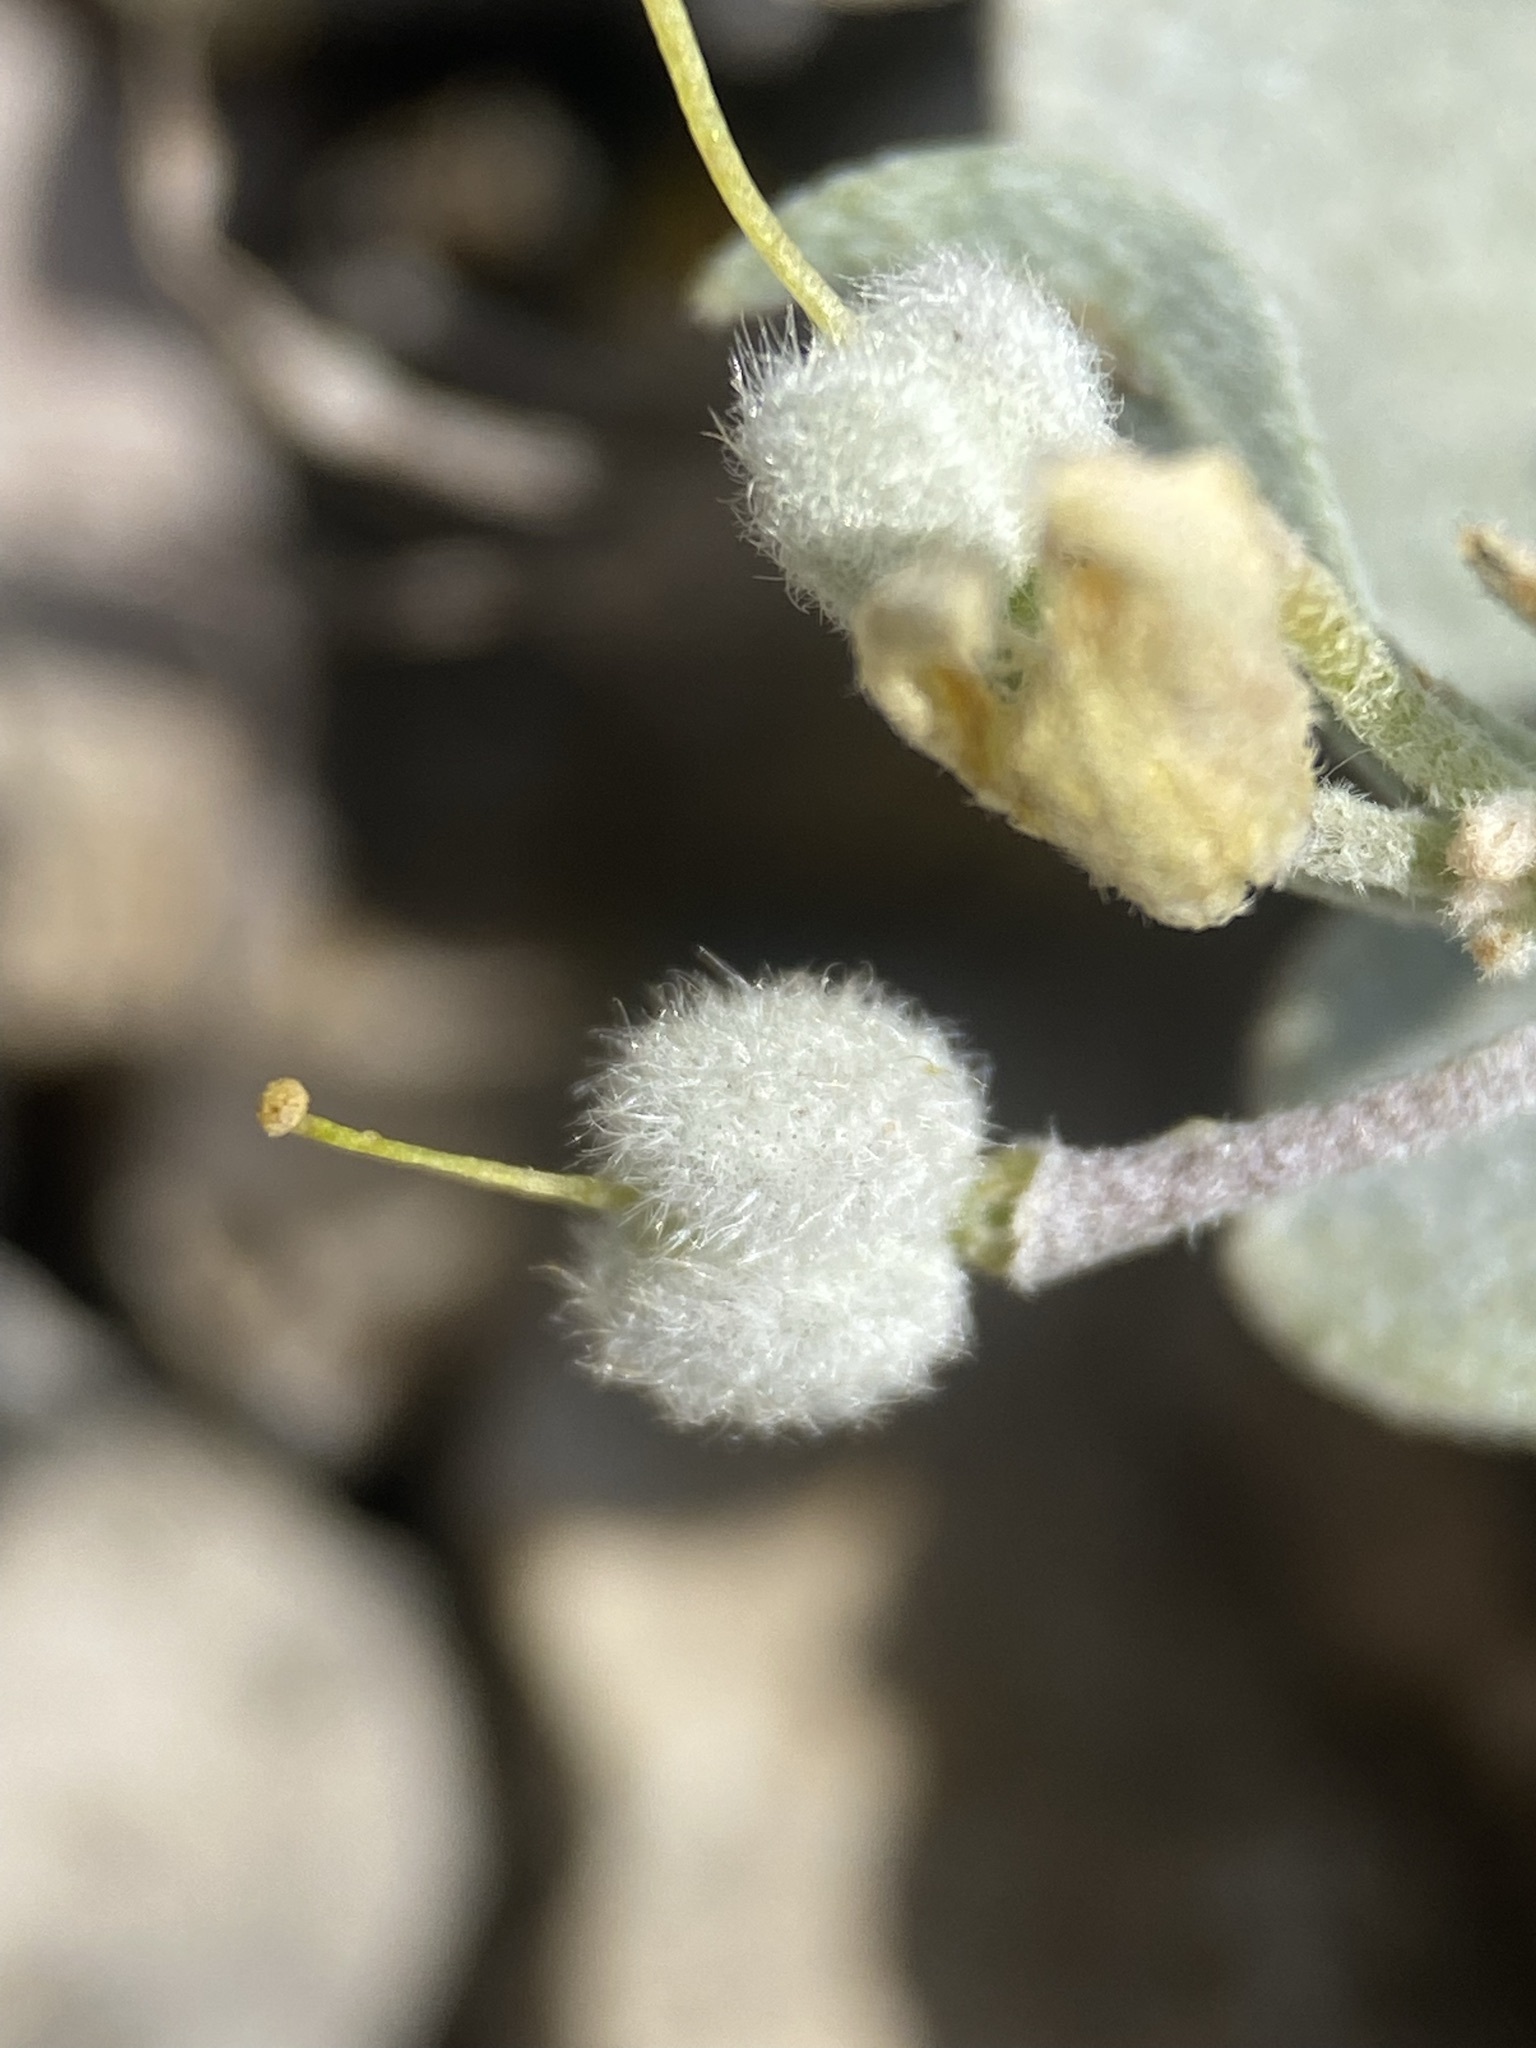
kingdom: Plantae
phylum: Tracheophyta
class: Magnoliopsida
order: Brassicales
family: Brassicaceae
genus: Physaria
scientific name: Physaria didymocarpa
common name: Common twinpod
